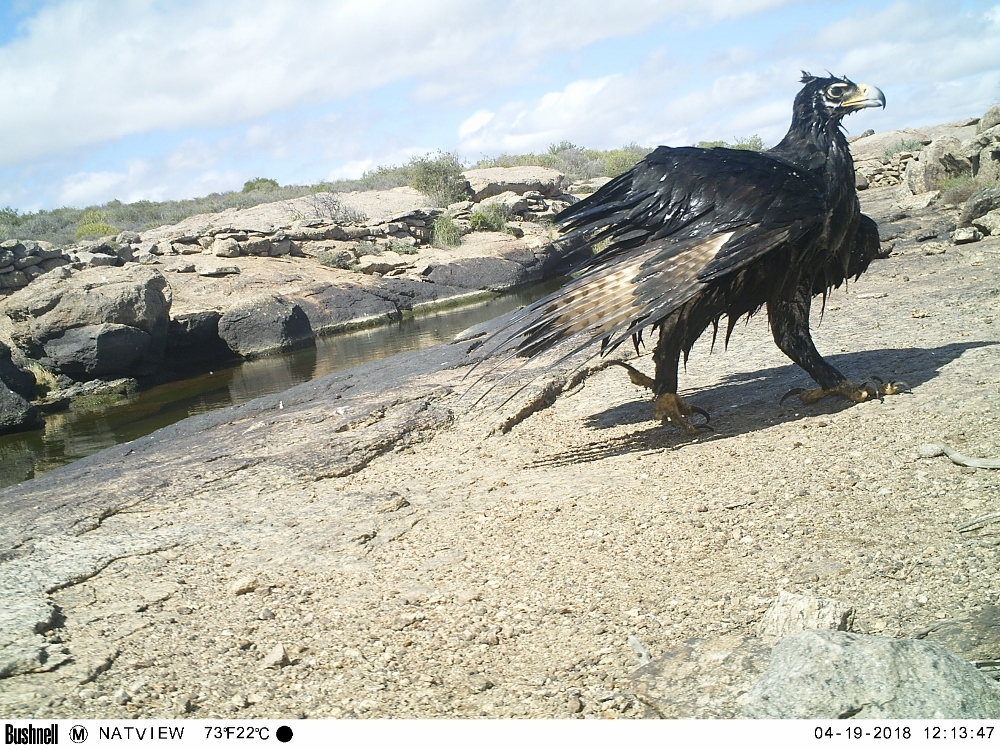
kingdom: Animalia
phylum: Chordata
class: Aves
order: Accipitriformes
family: Accipitridae
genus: Aquila
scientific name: Aquila verreauxii
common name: Verreaux's eagle
